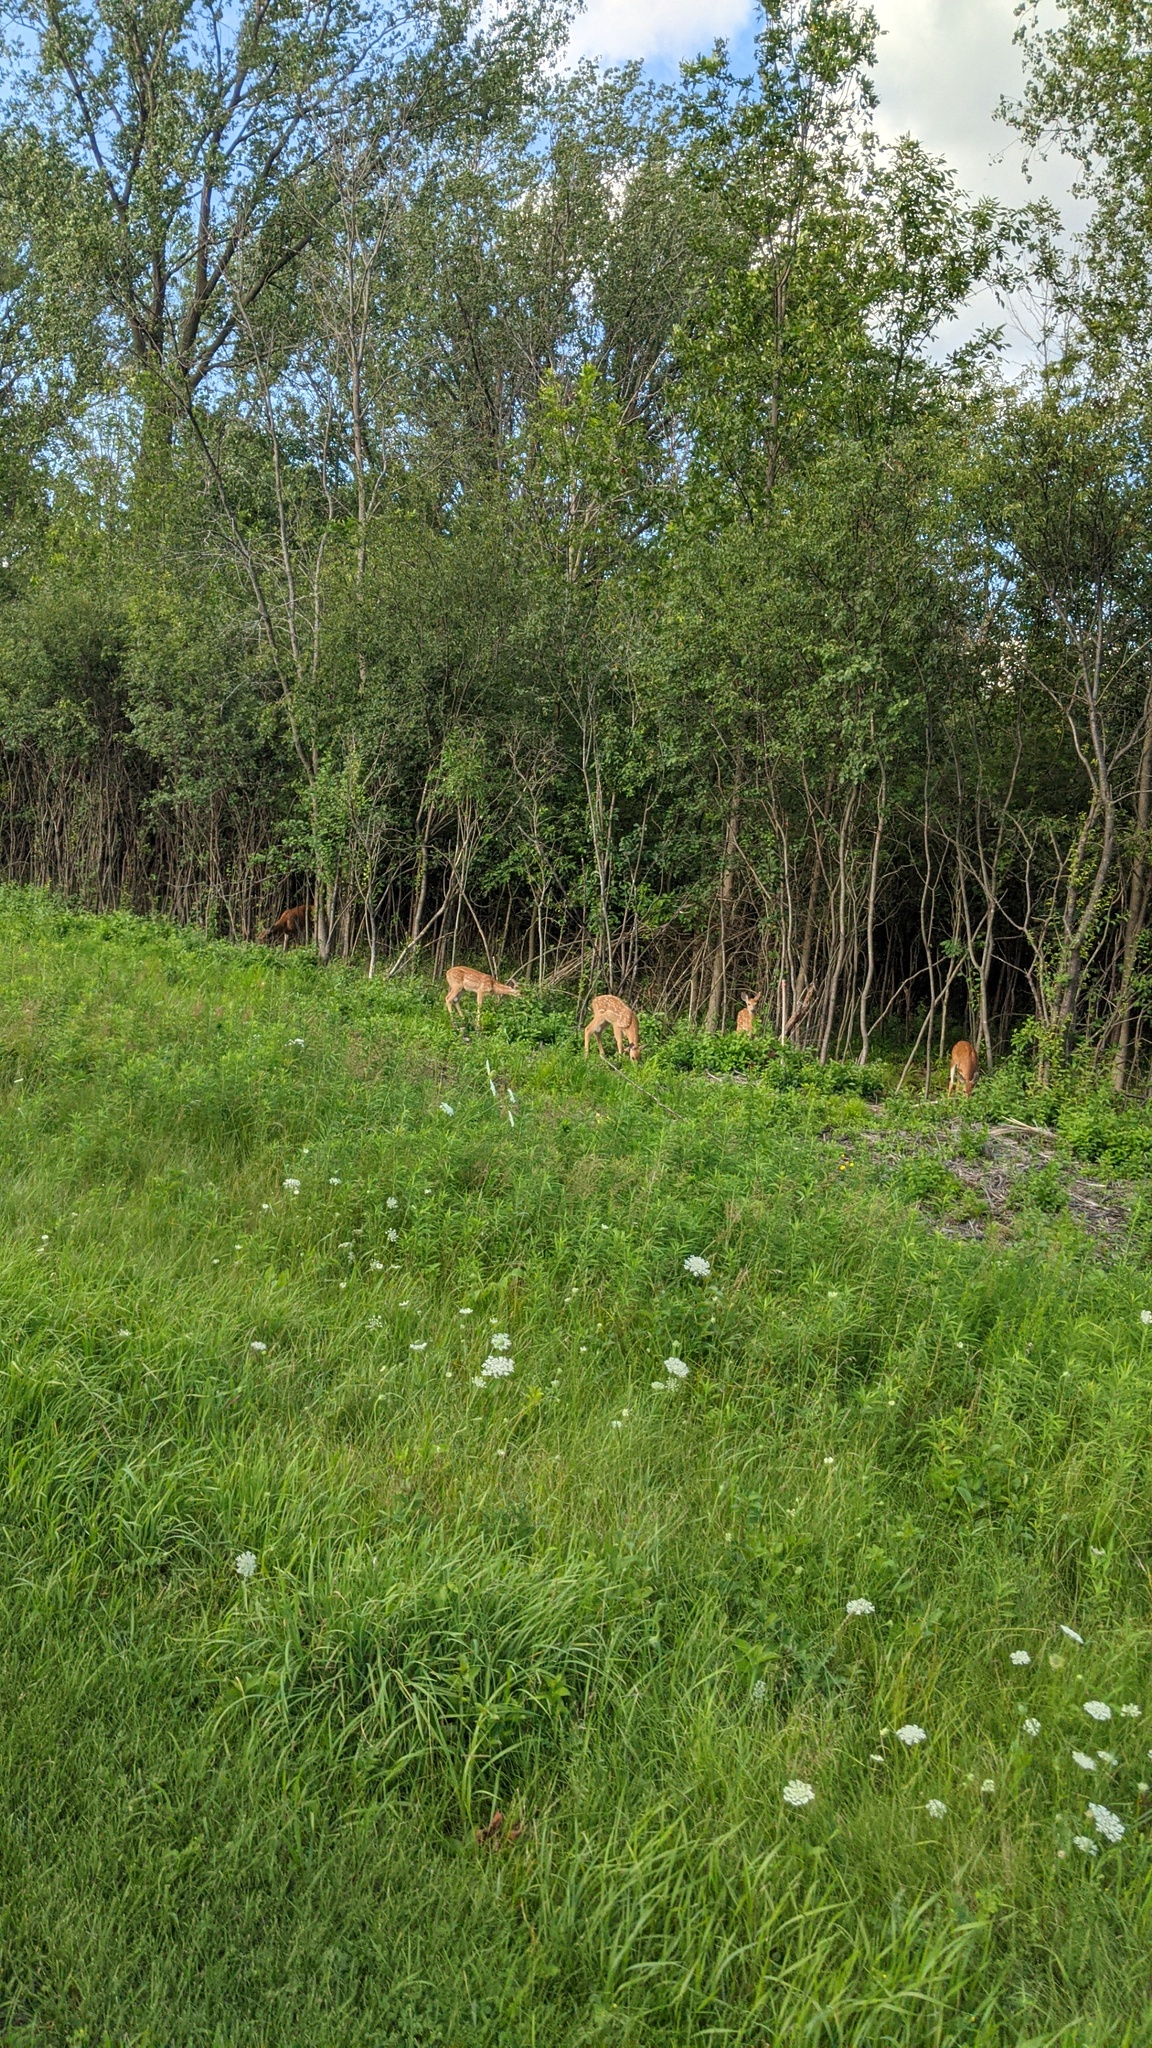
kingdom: Animalia
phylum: Chordata
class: Mammalia
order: Artiodactyla
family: Cervidae
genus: Odocoileus
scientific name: Odocoileus virginianus
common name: White-tailed deer
